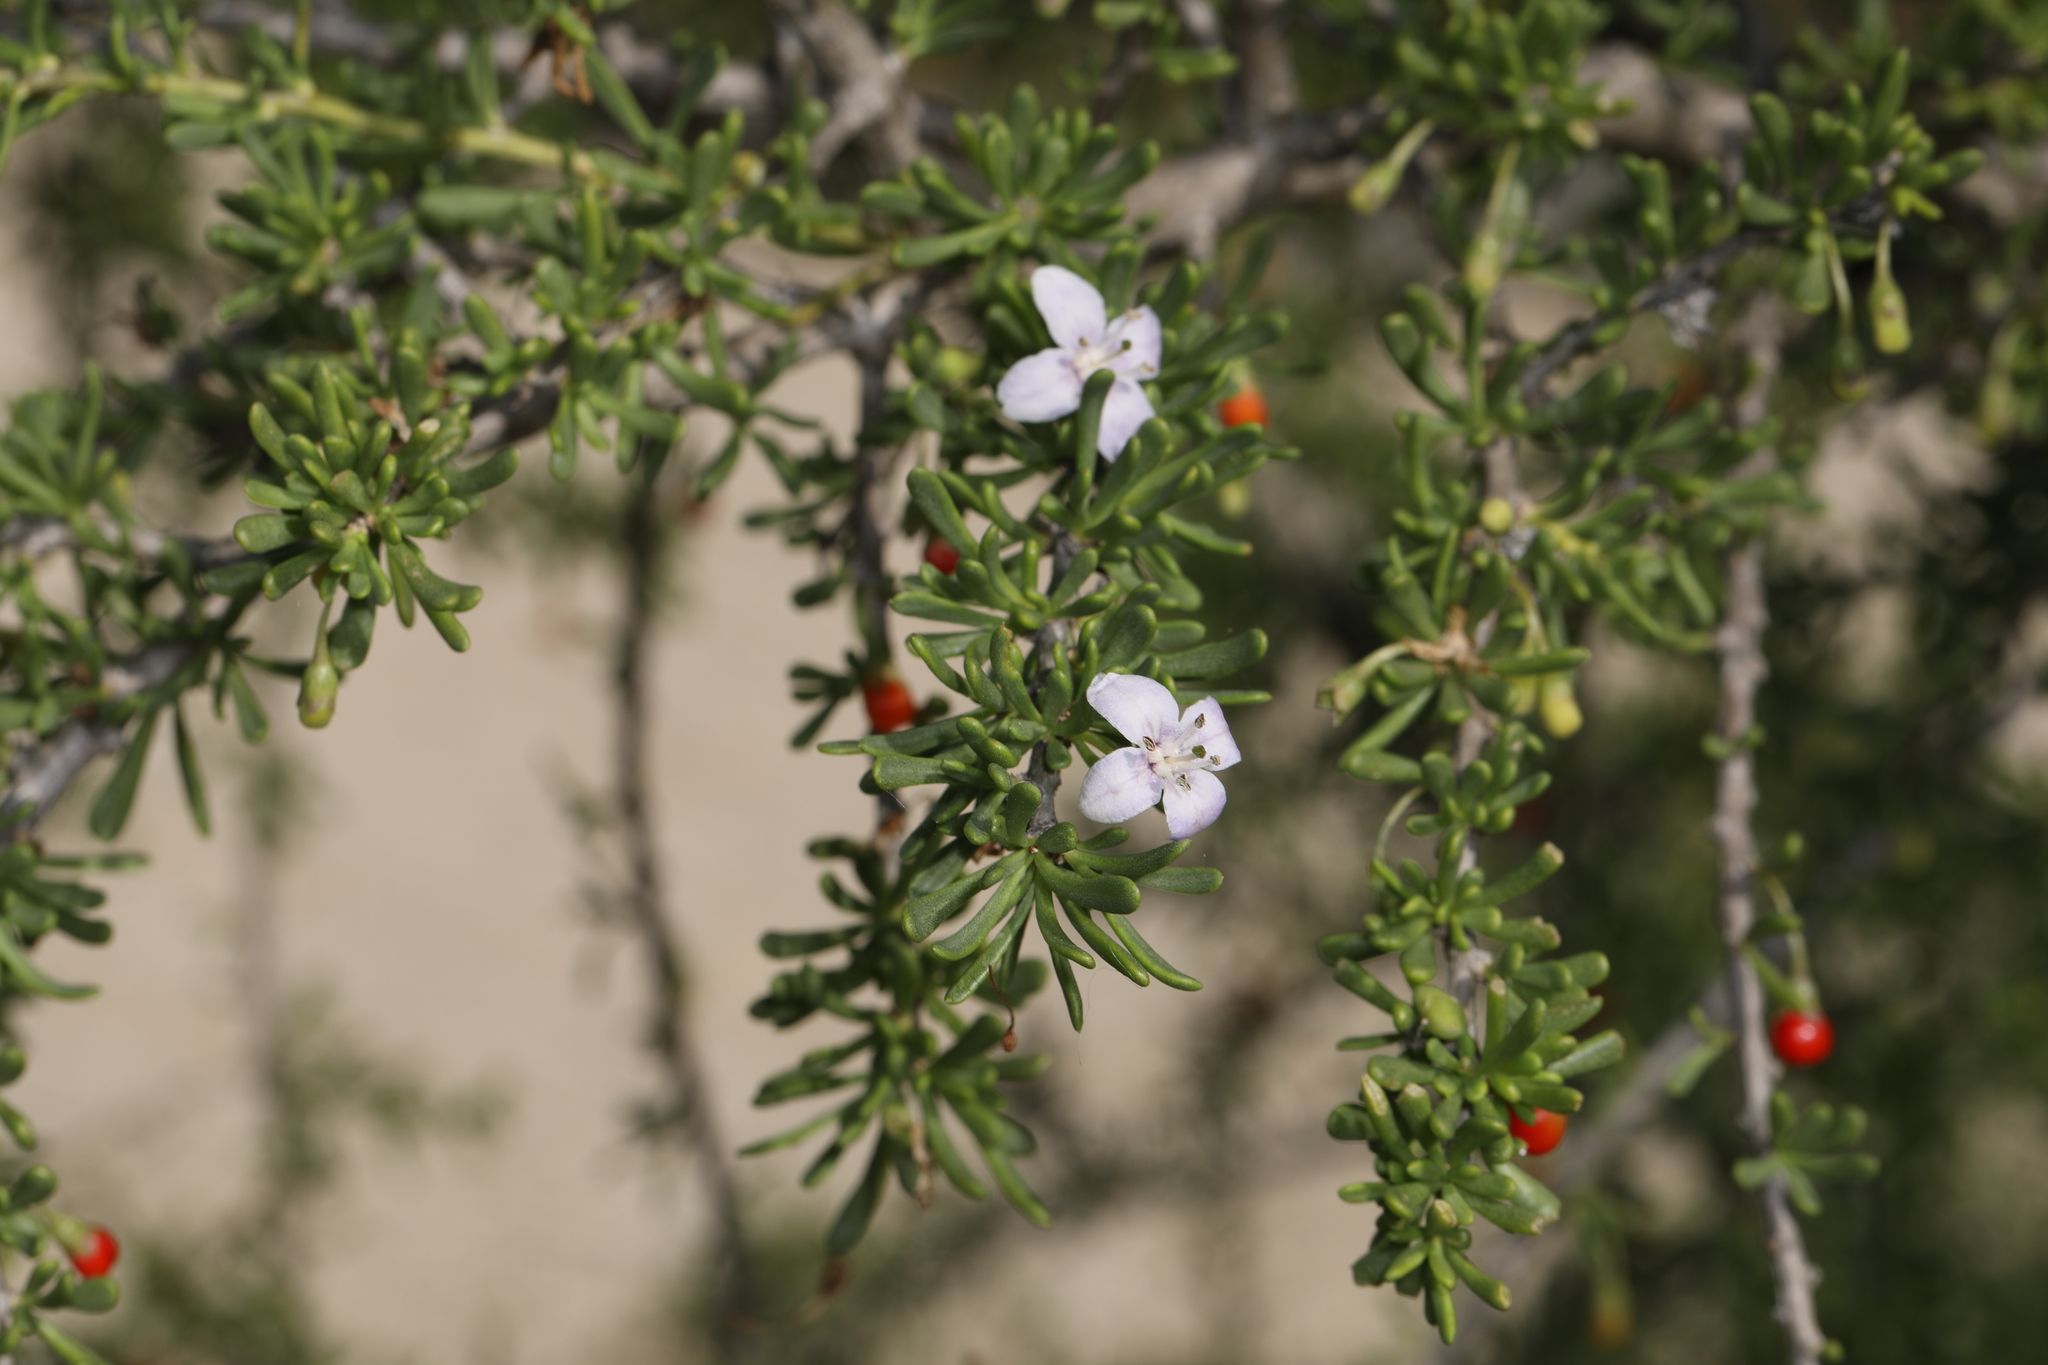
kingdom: Plantae
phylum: Tracheophyta
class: Magnoliopsida
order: Solanales
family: Solanaceae
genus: Lycium
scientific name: Lycium carolinianum
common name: Christmasberry
